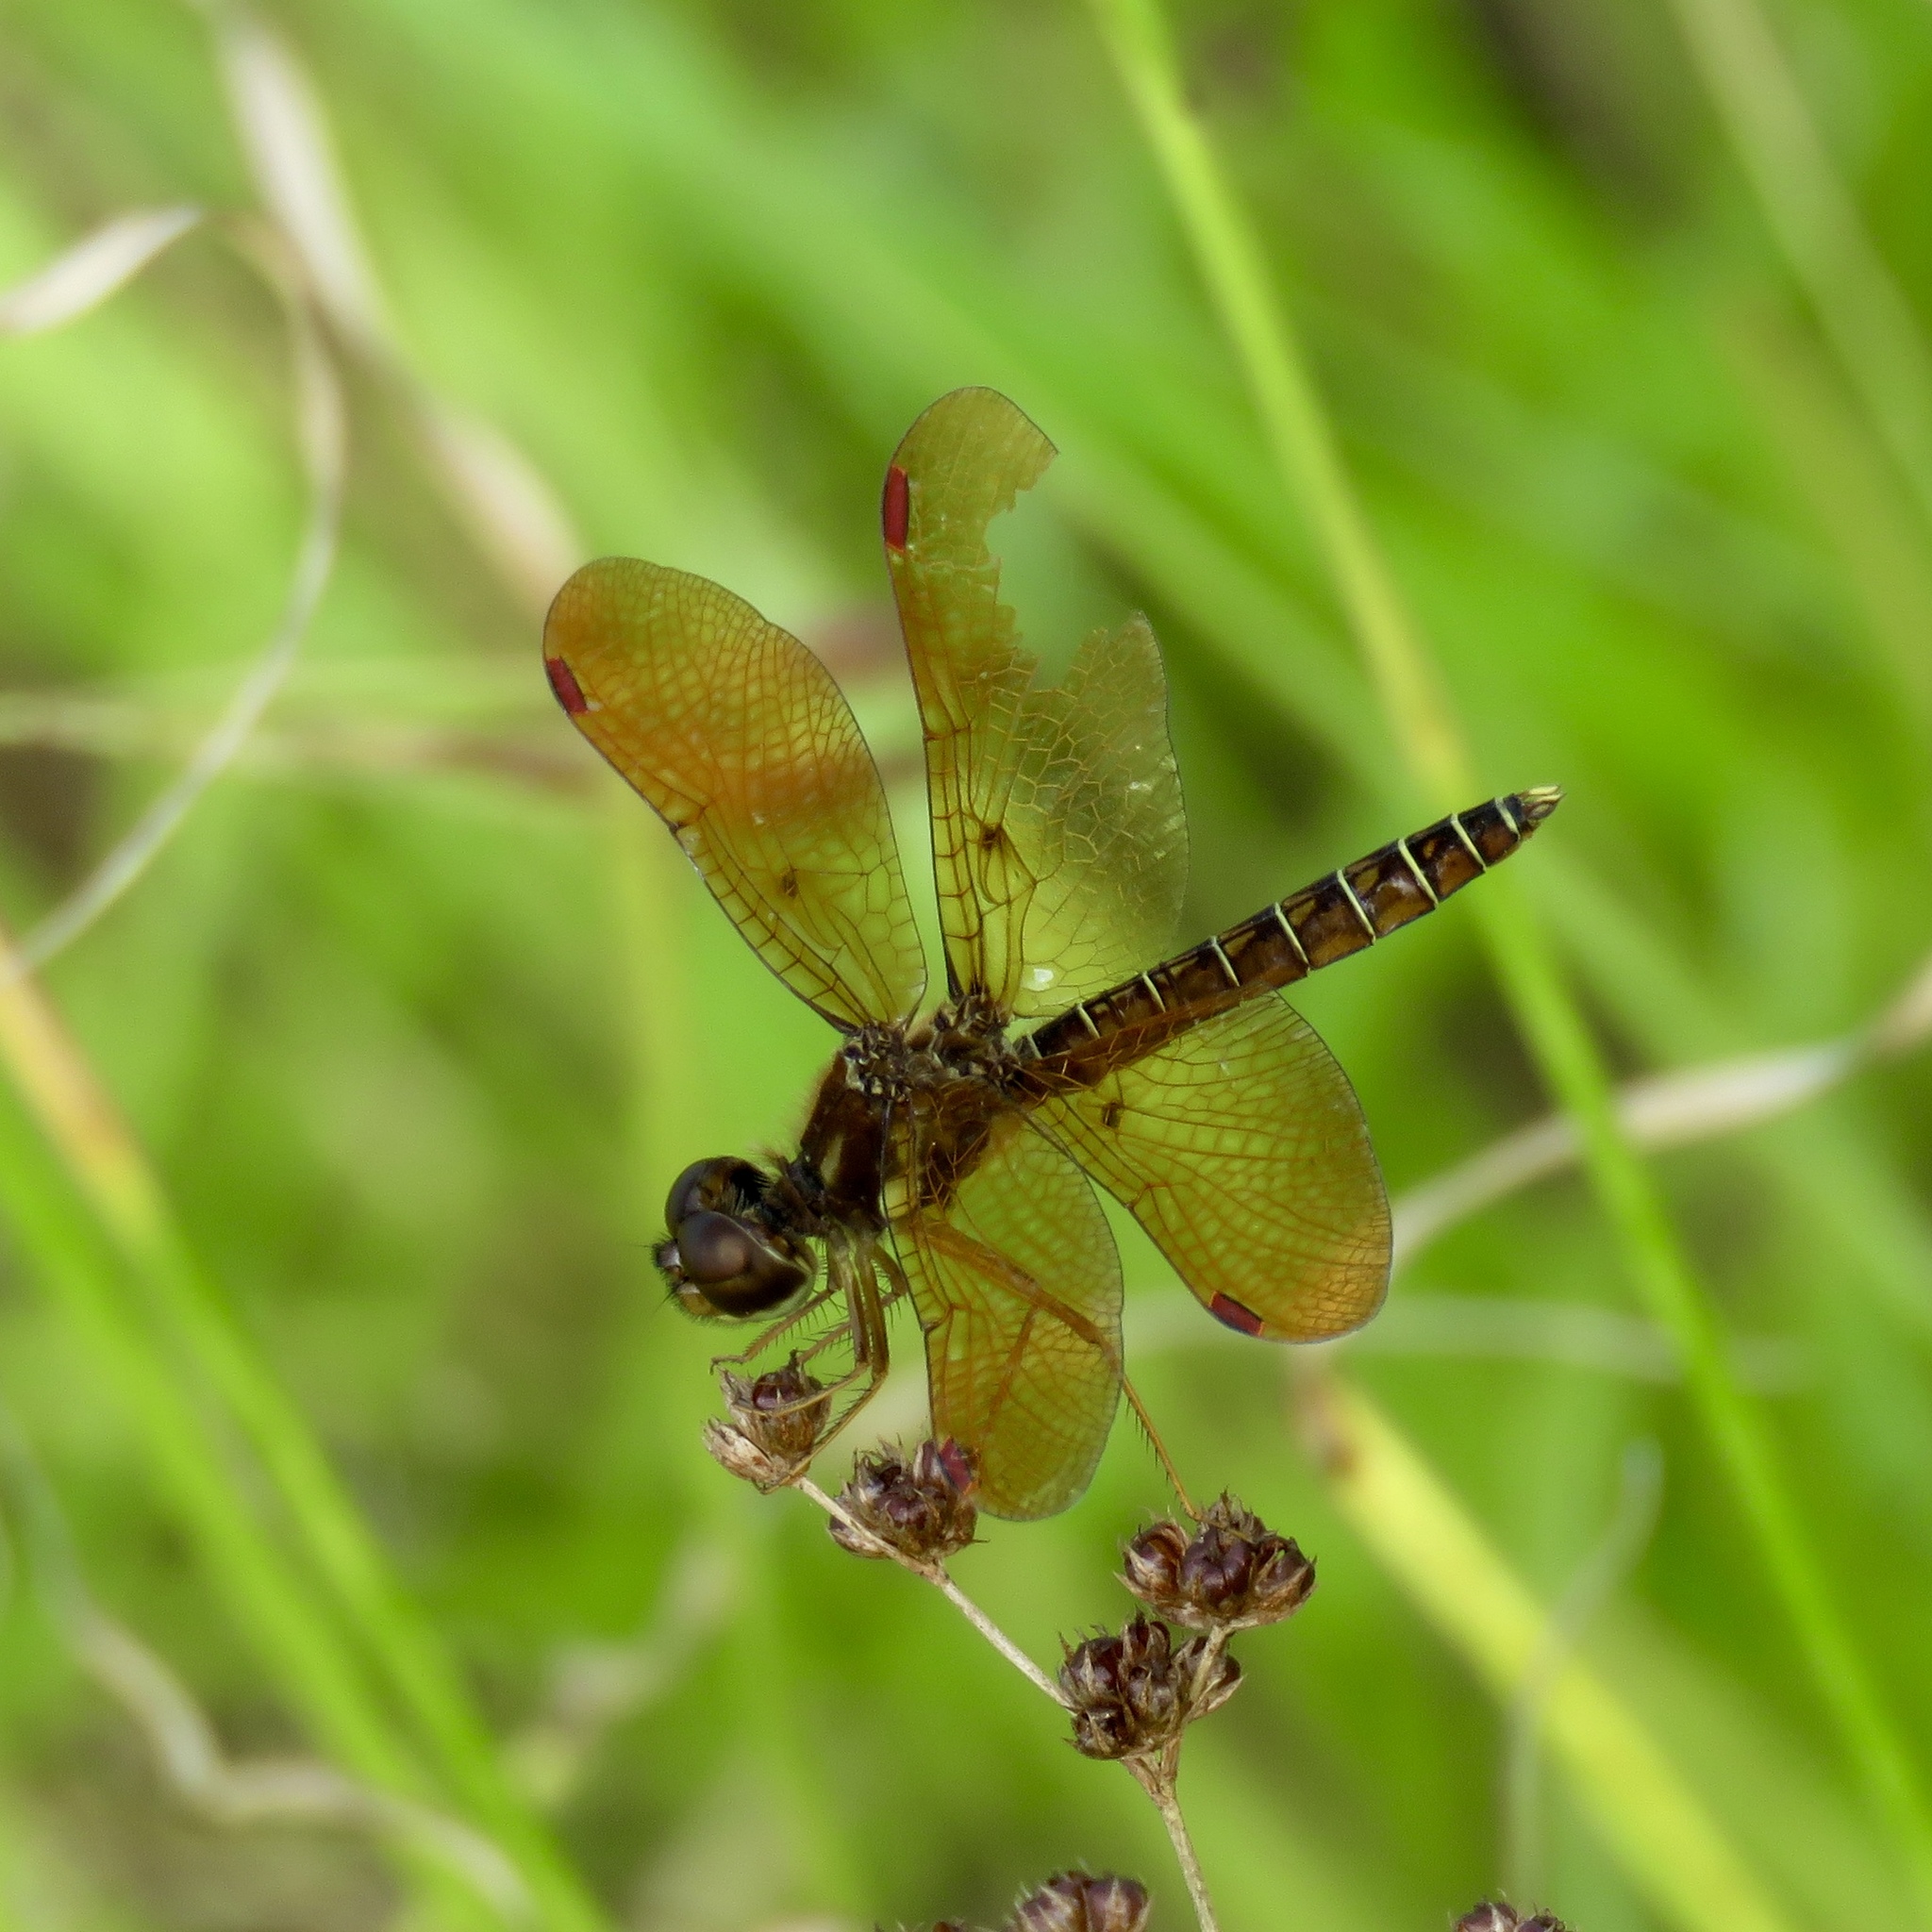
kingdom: Animalia
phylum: Arthropoda
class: Insecta
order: Odonata
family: Libellulidae
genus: Perithemis
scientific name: Perithemis tenera
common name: Eastern amberwing
